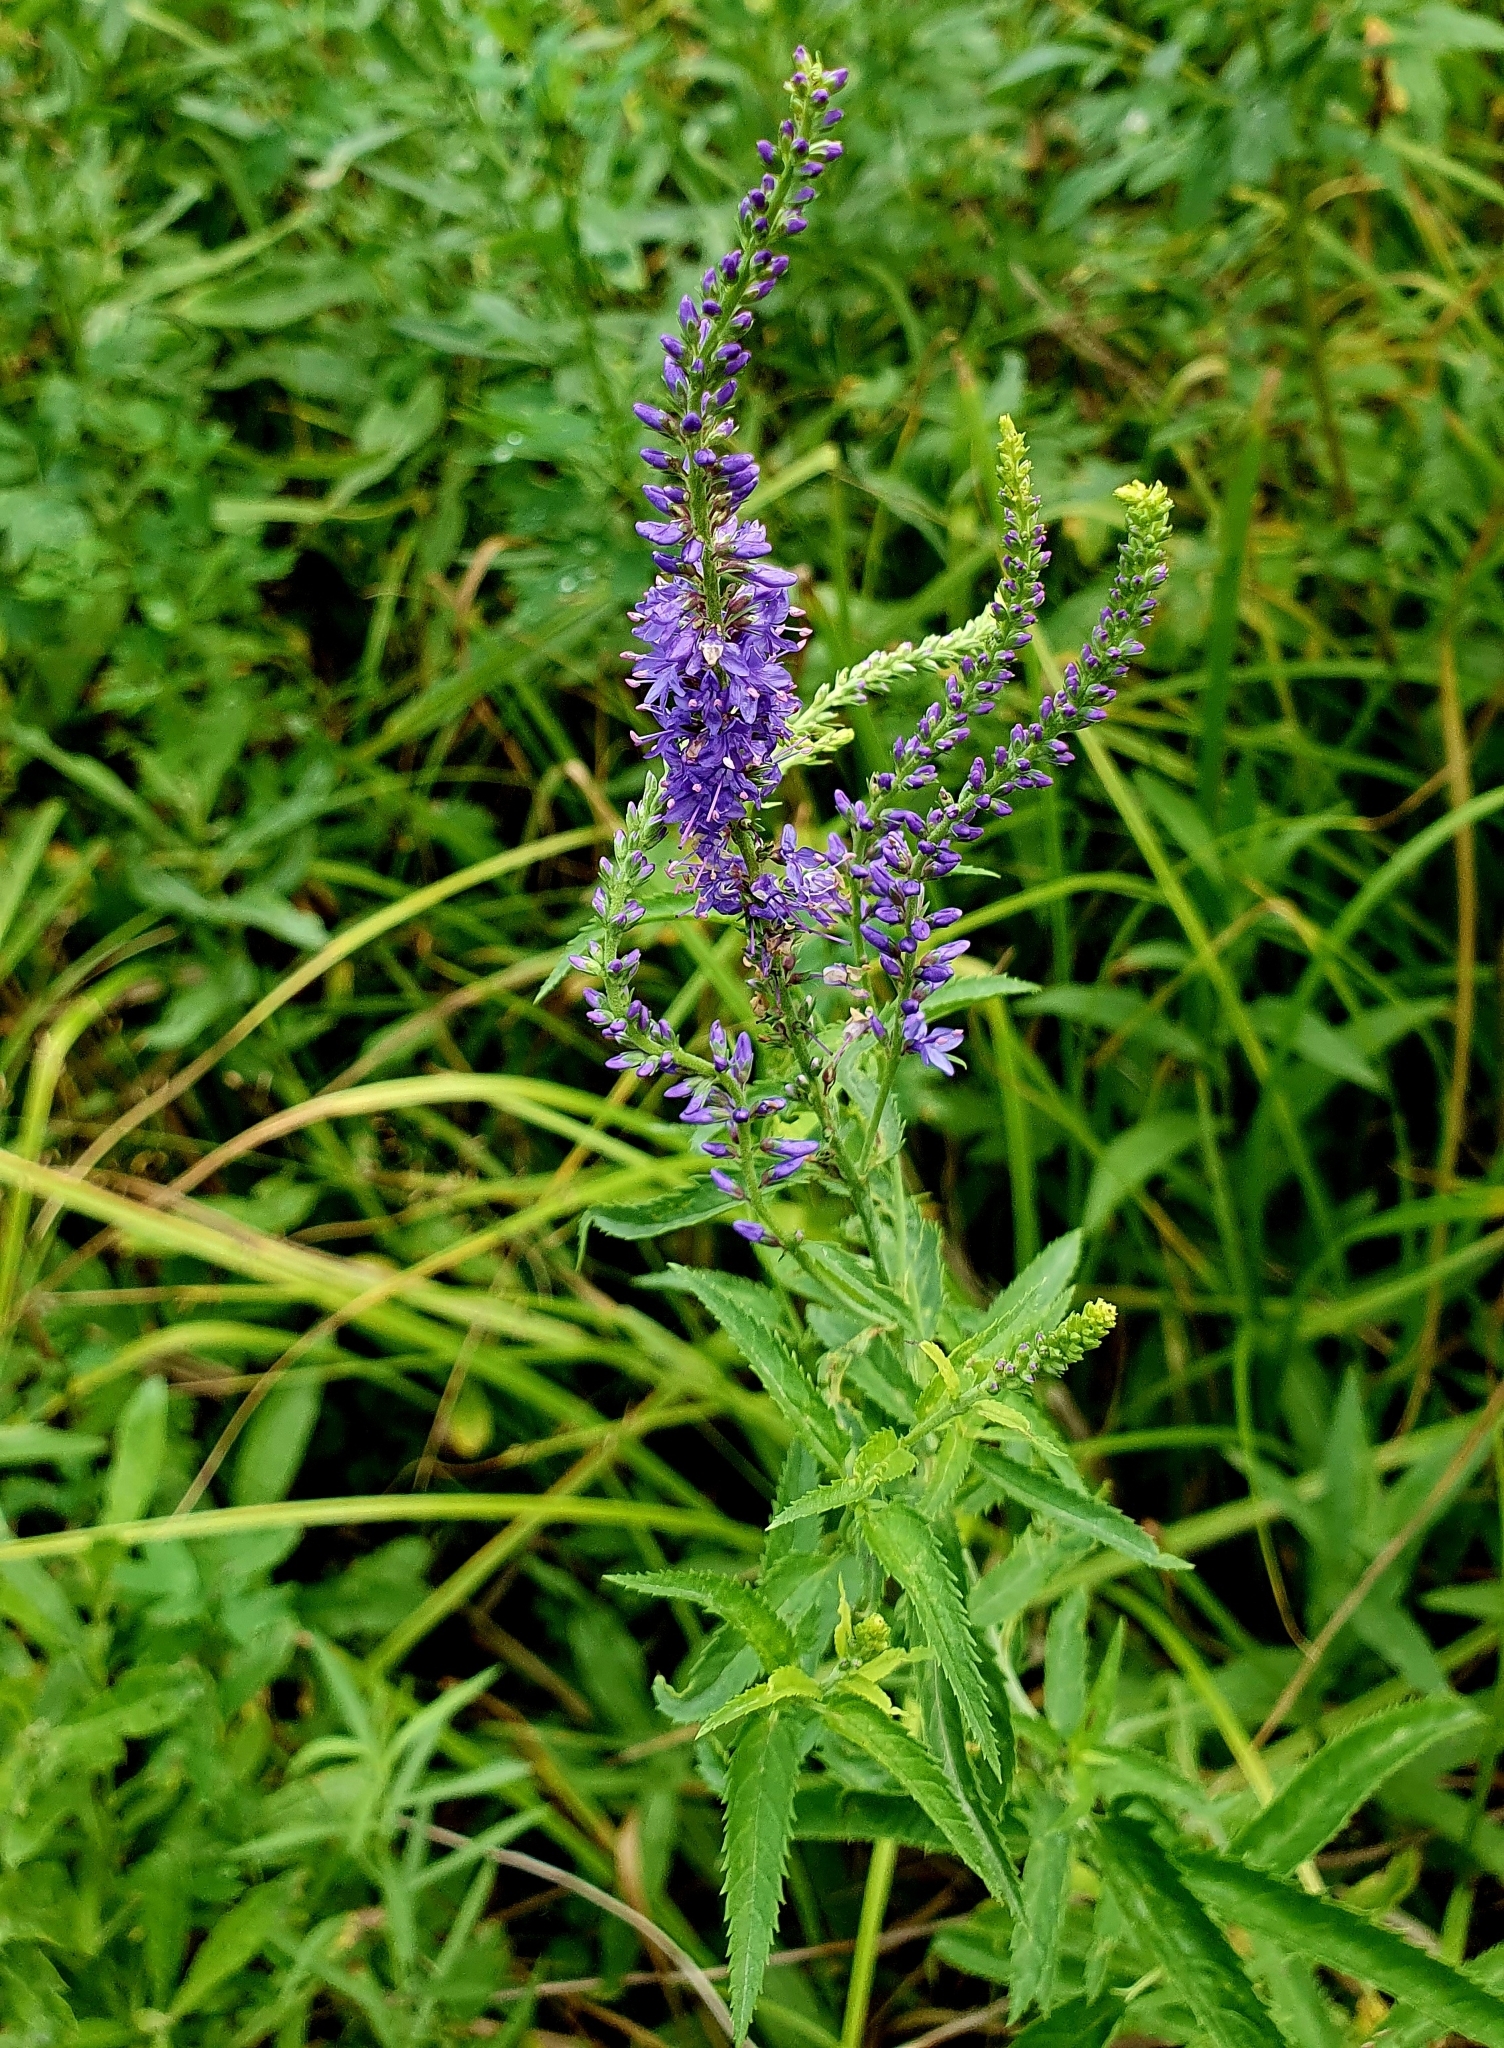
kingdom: Plantae
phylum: Tracheophyta
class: Magnoliopsida
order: Lamiales
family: Plantaginaceae
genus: Veronica
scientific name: Veronica longifolia
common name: Garden speedwell
